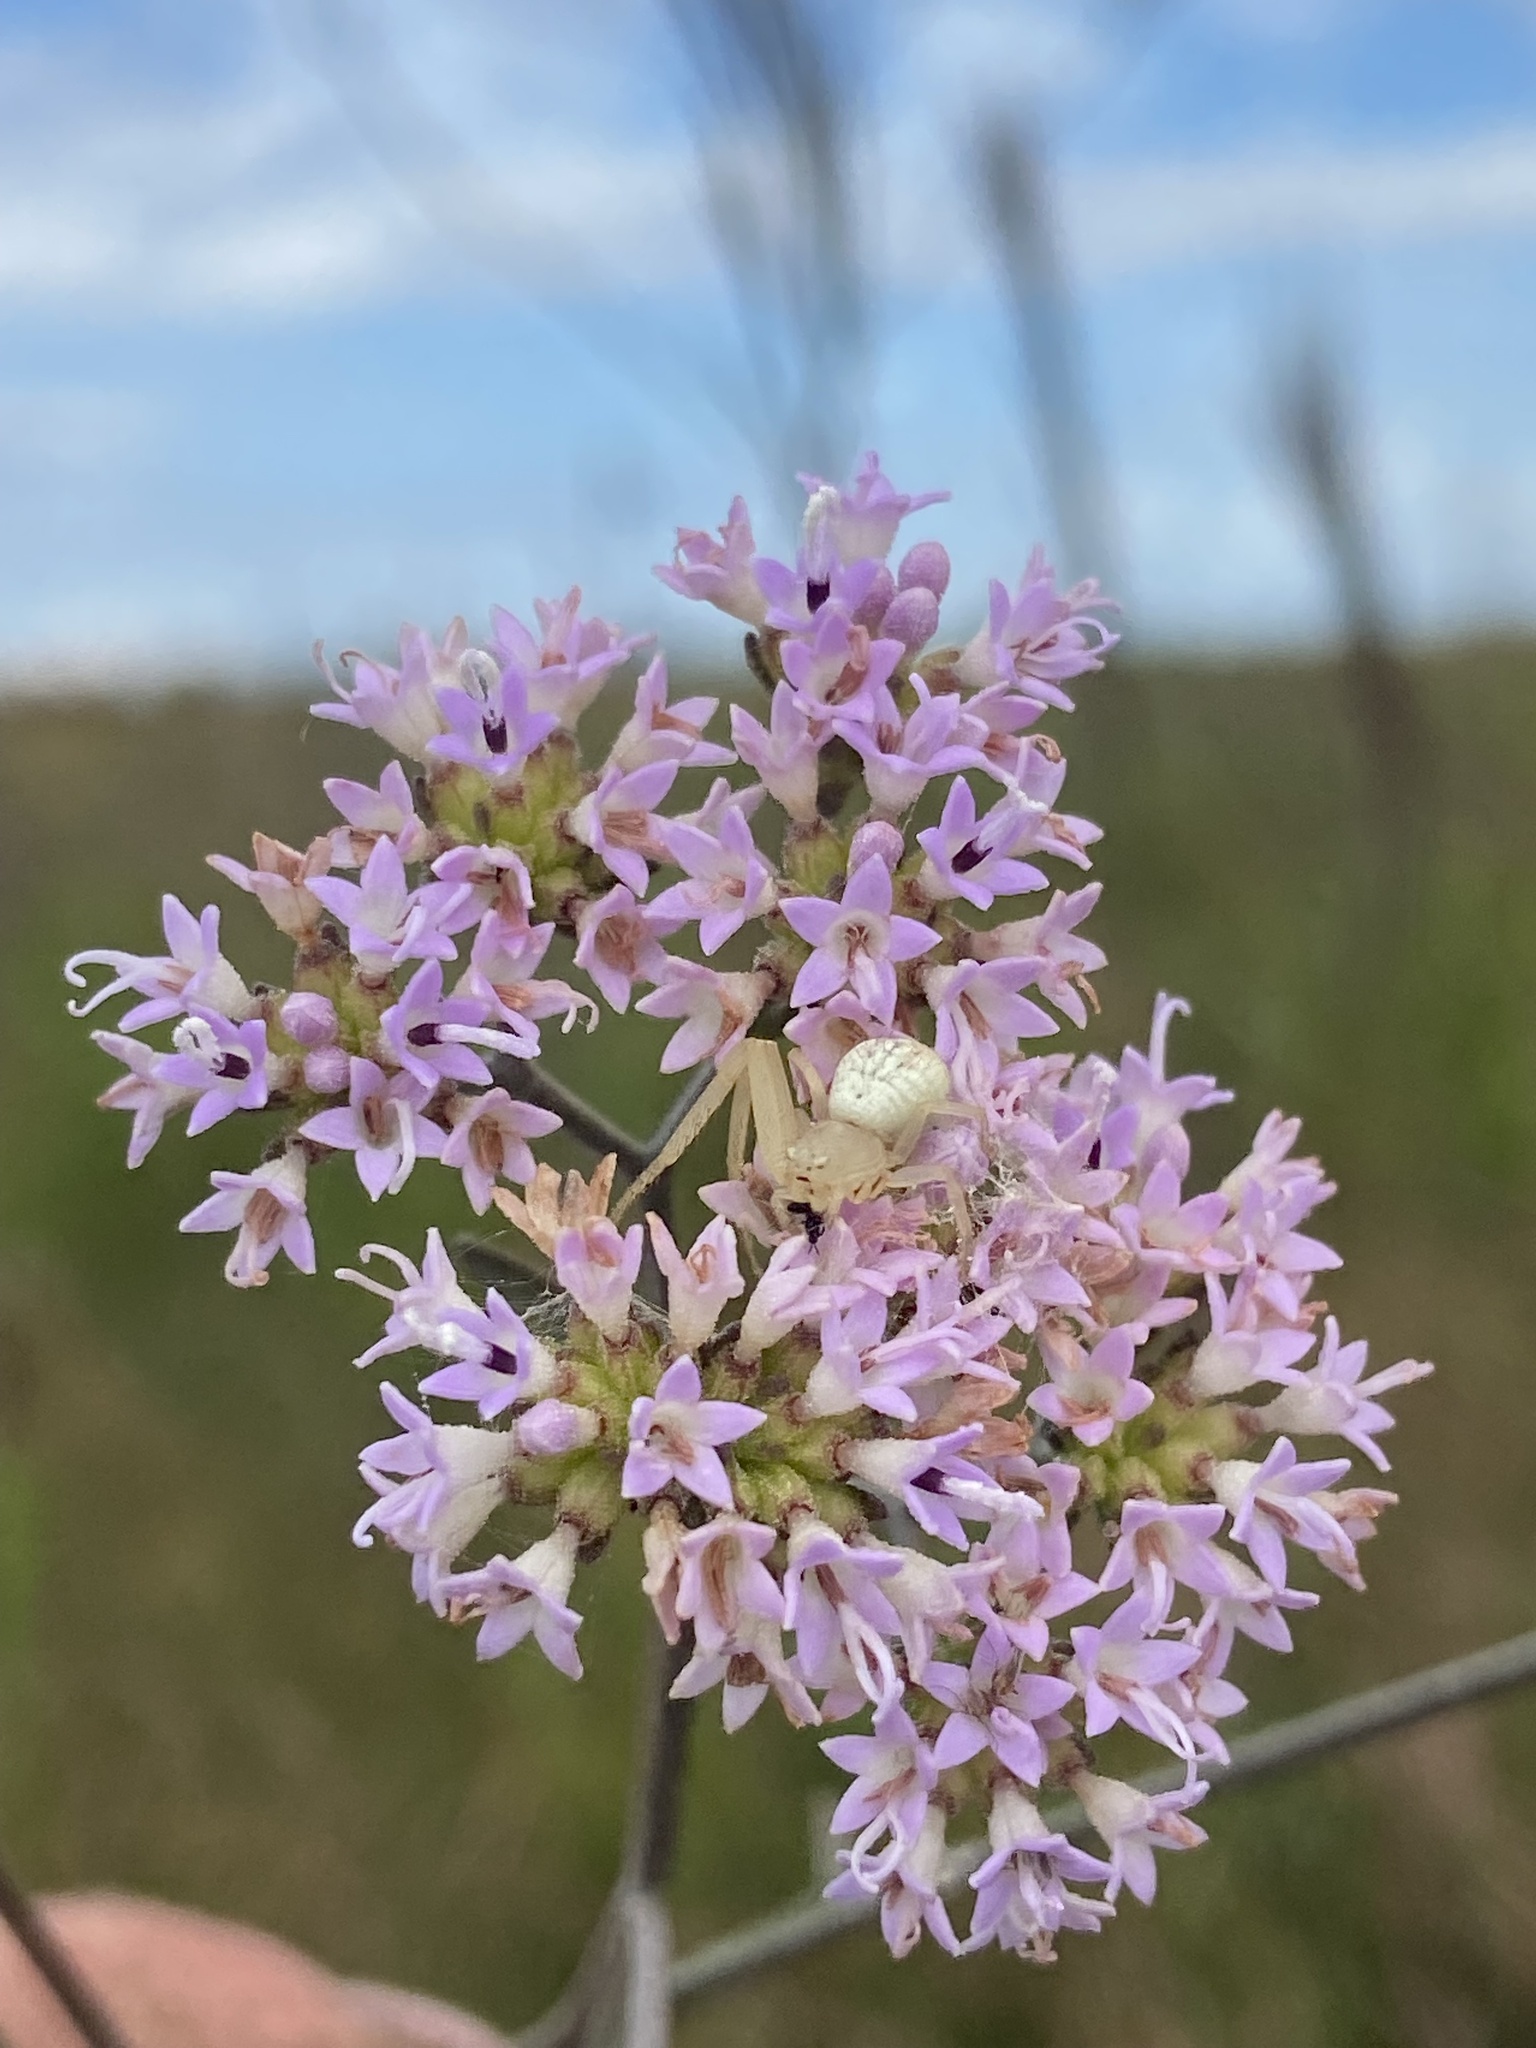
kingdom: Plantae
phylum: Tracheophyta
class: Magnoliopsida
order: Asterales
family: Asteraceae
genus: Hartwrightia
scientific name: Hartwrightia floridana
